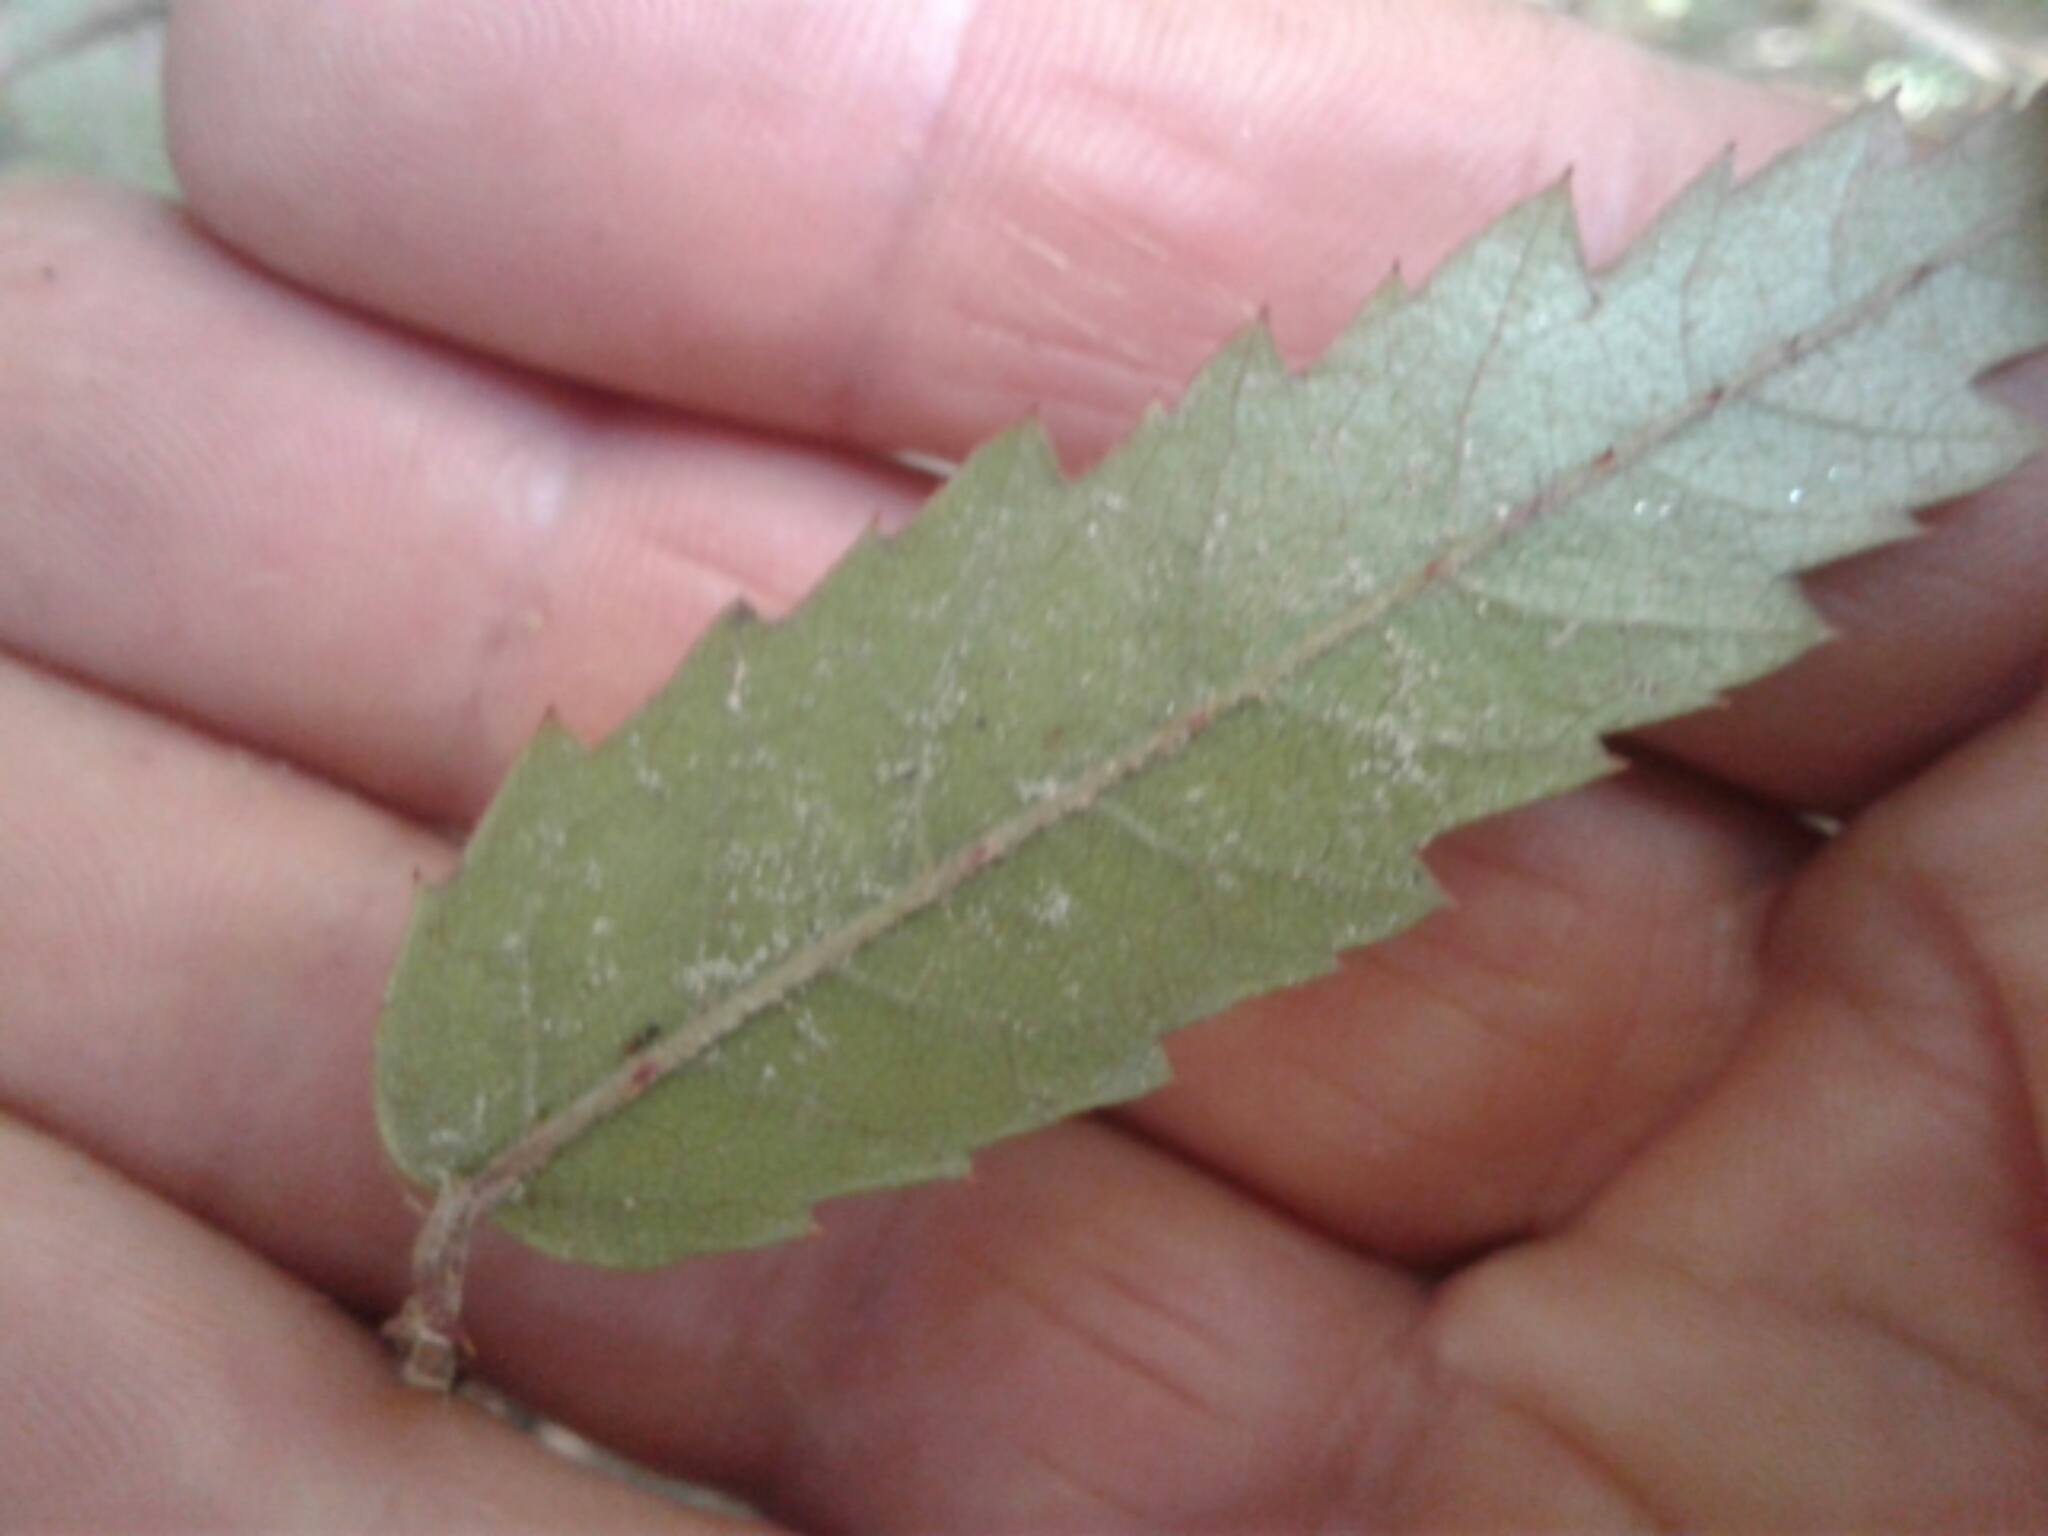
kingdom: Plantae
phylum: Tracheophyta
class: Magnoliopsida
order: Rosales
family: Rosaceae
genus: Rubus
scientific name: Rubus schmidelioides
